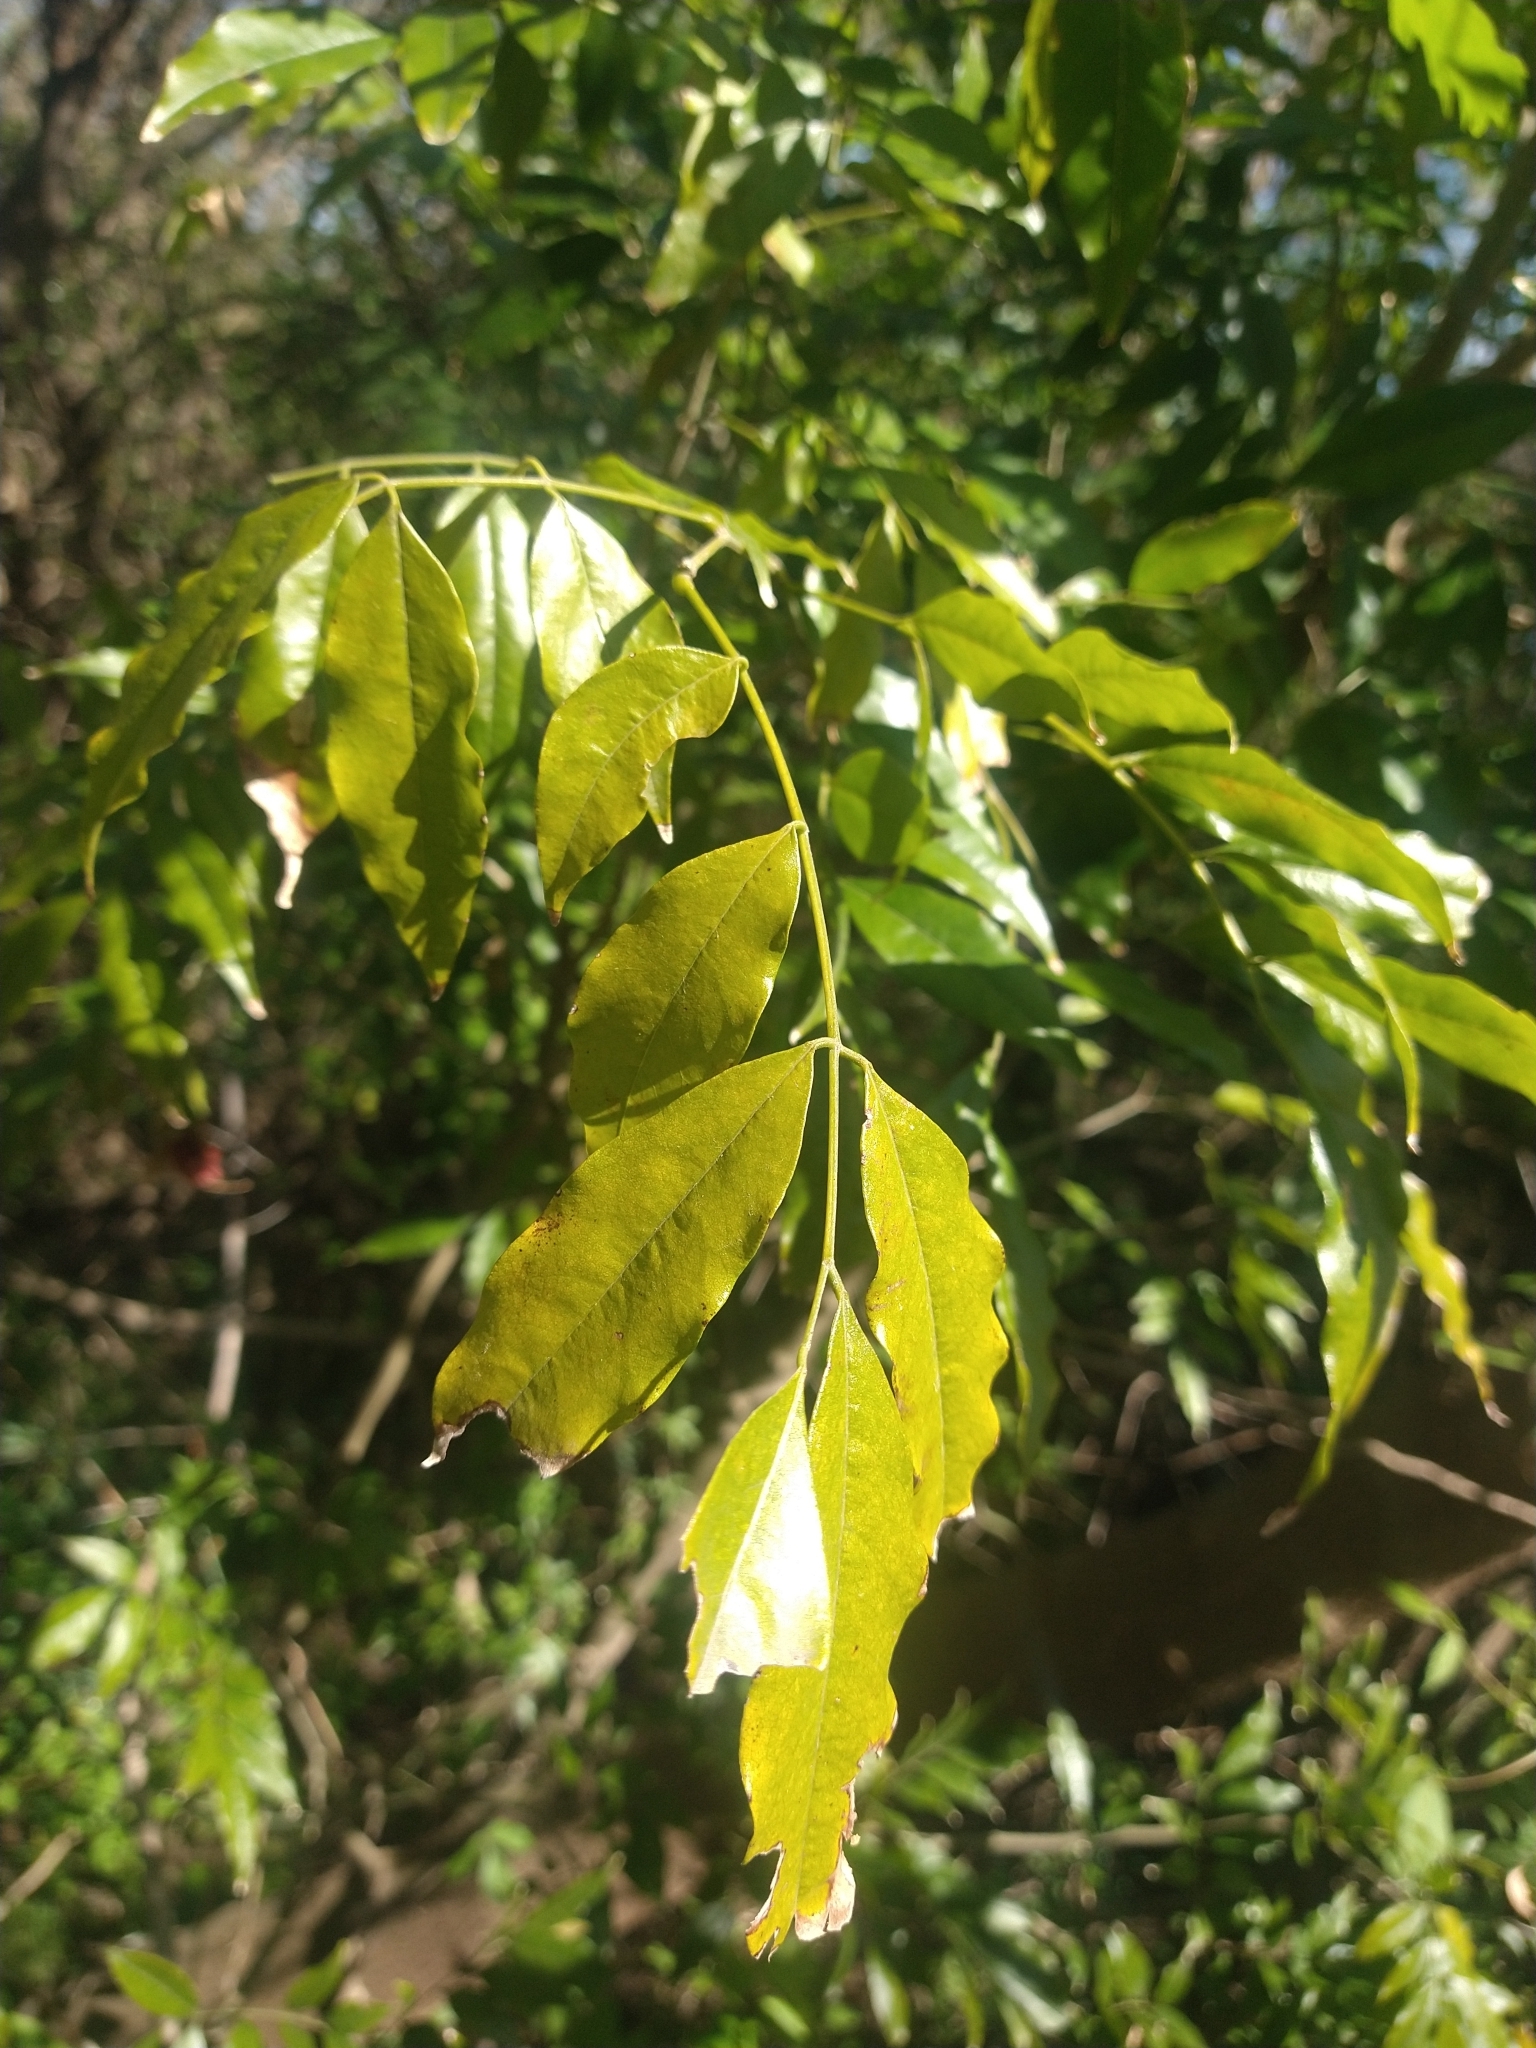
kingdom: Plantae
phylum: Tracheophyta
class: Magnoliopsida
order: Fabales
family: Fabaceae
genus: Lonchocarpus
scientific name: Lonchocarpus nitidus
